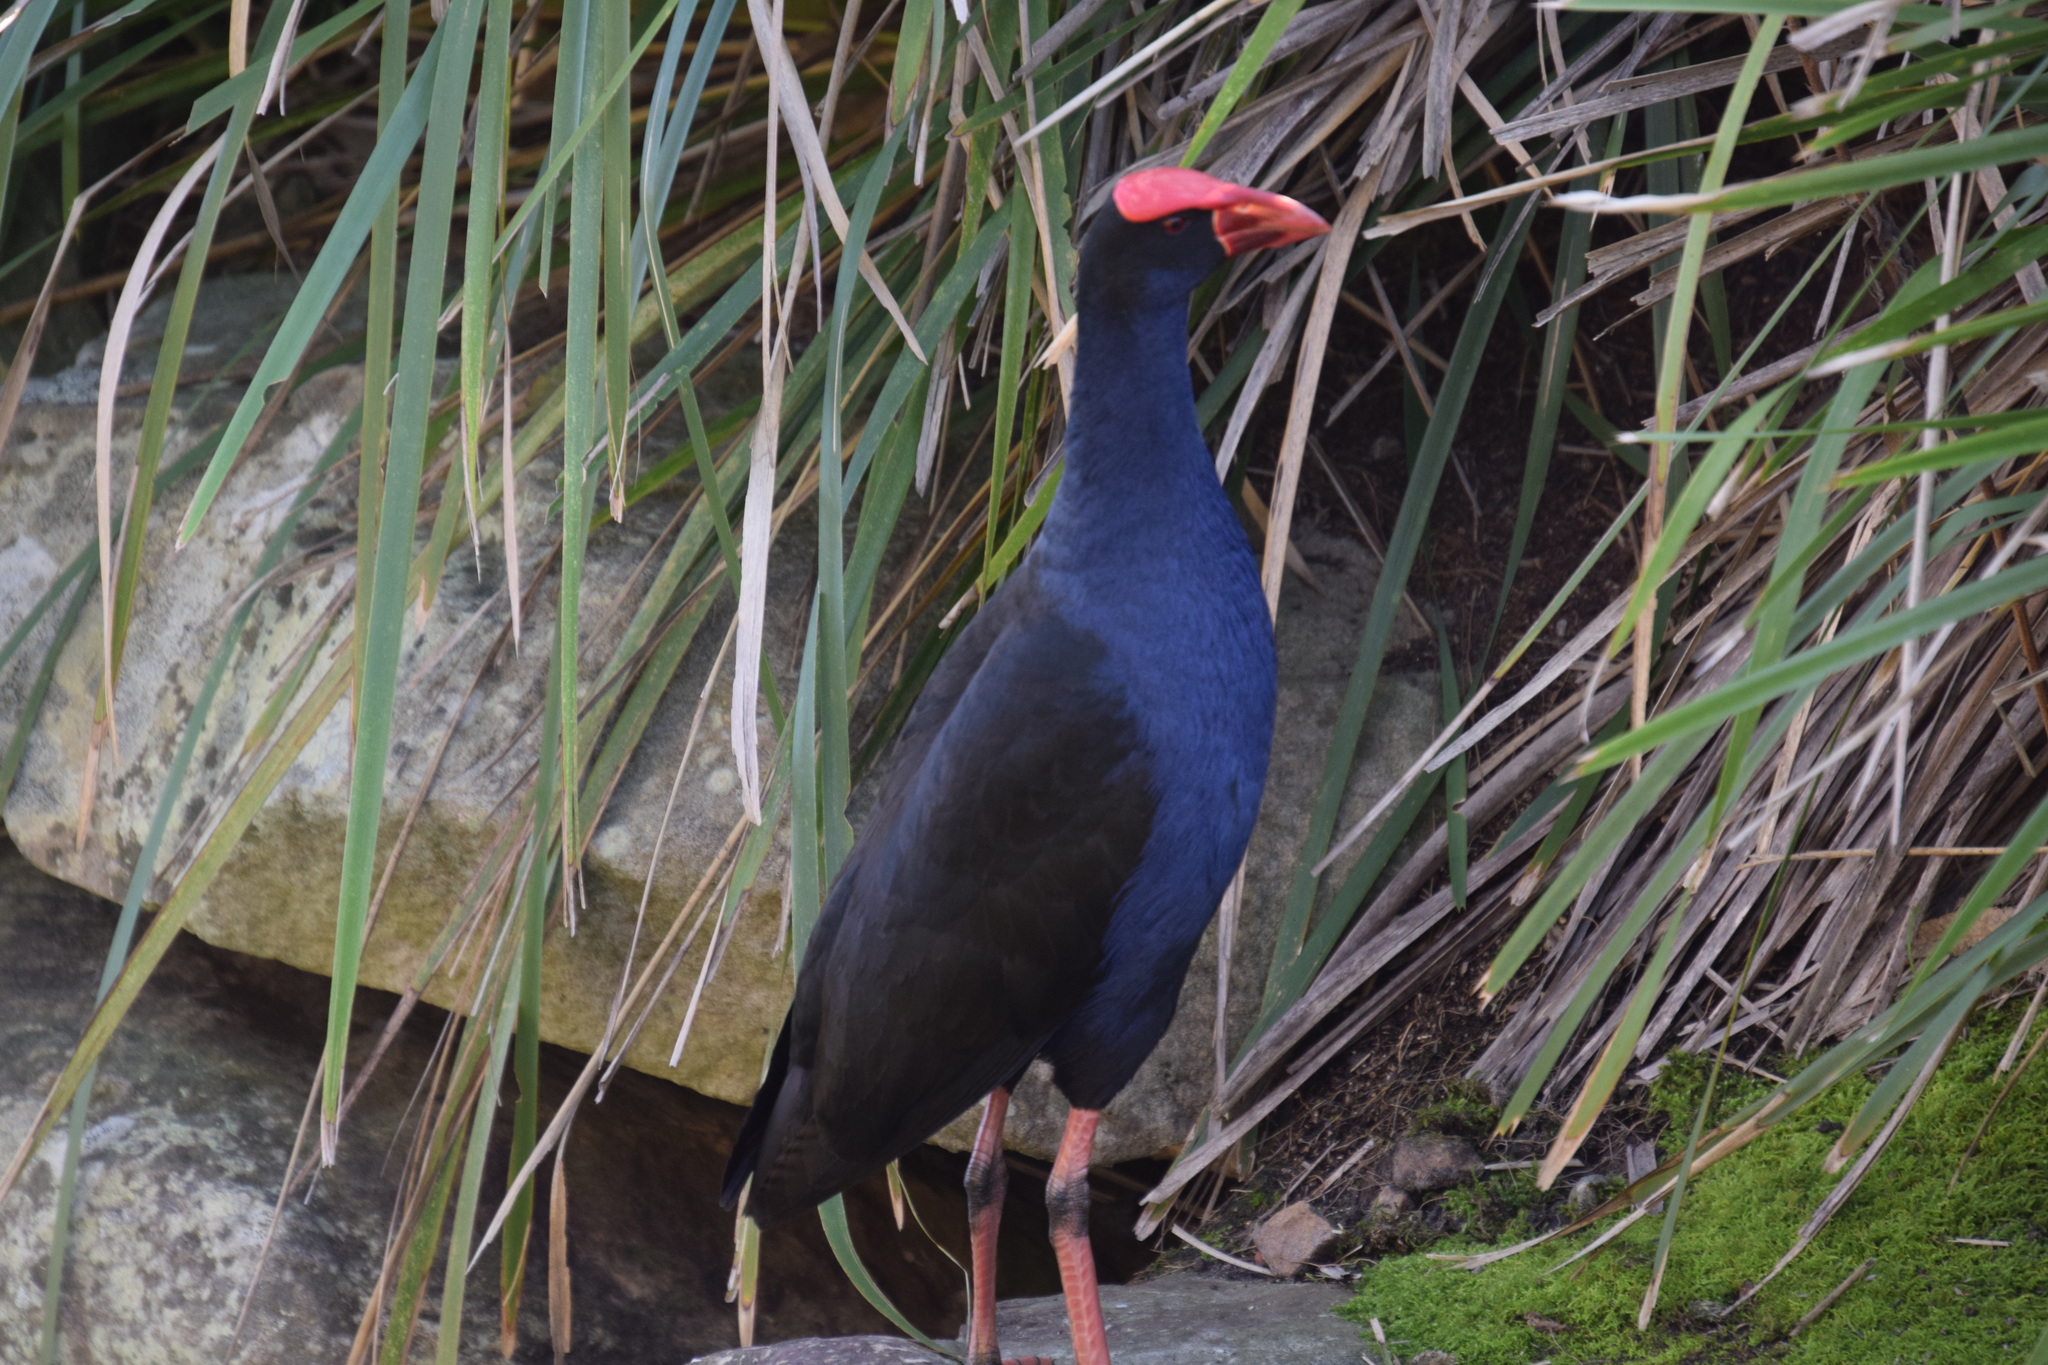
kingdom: Animalia
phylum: Chordata
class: Aves
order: Gruiformes
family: Rallidae
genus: Porphyrio
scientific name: Porphyrio melanotus
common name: Australasian swamphen
